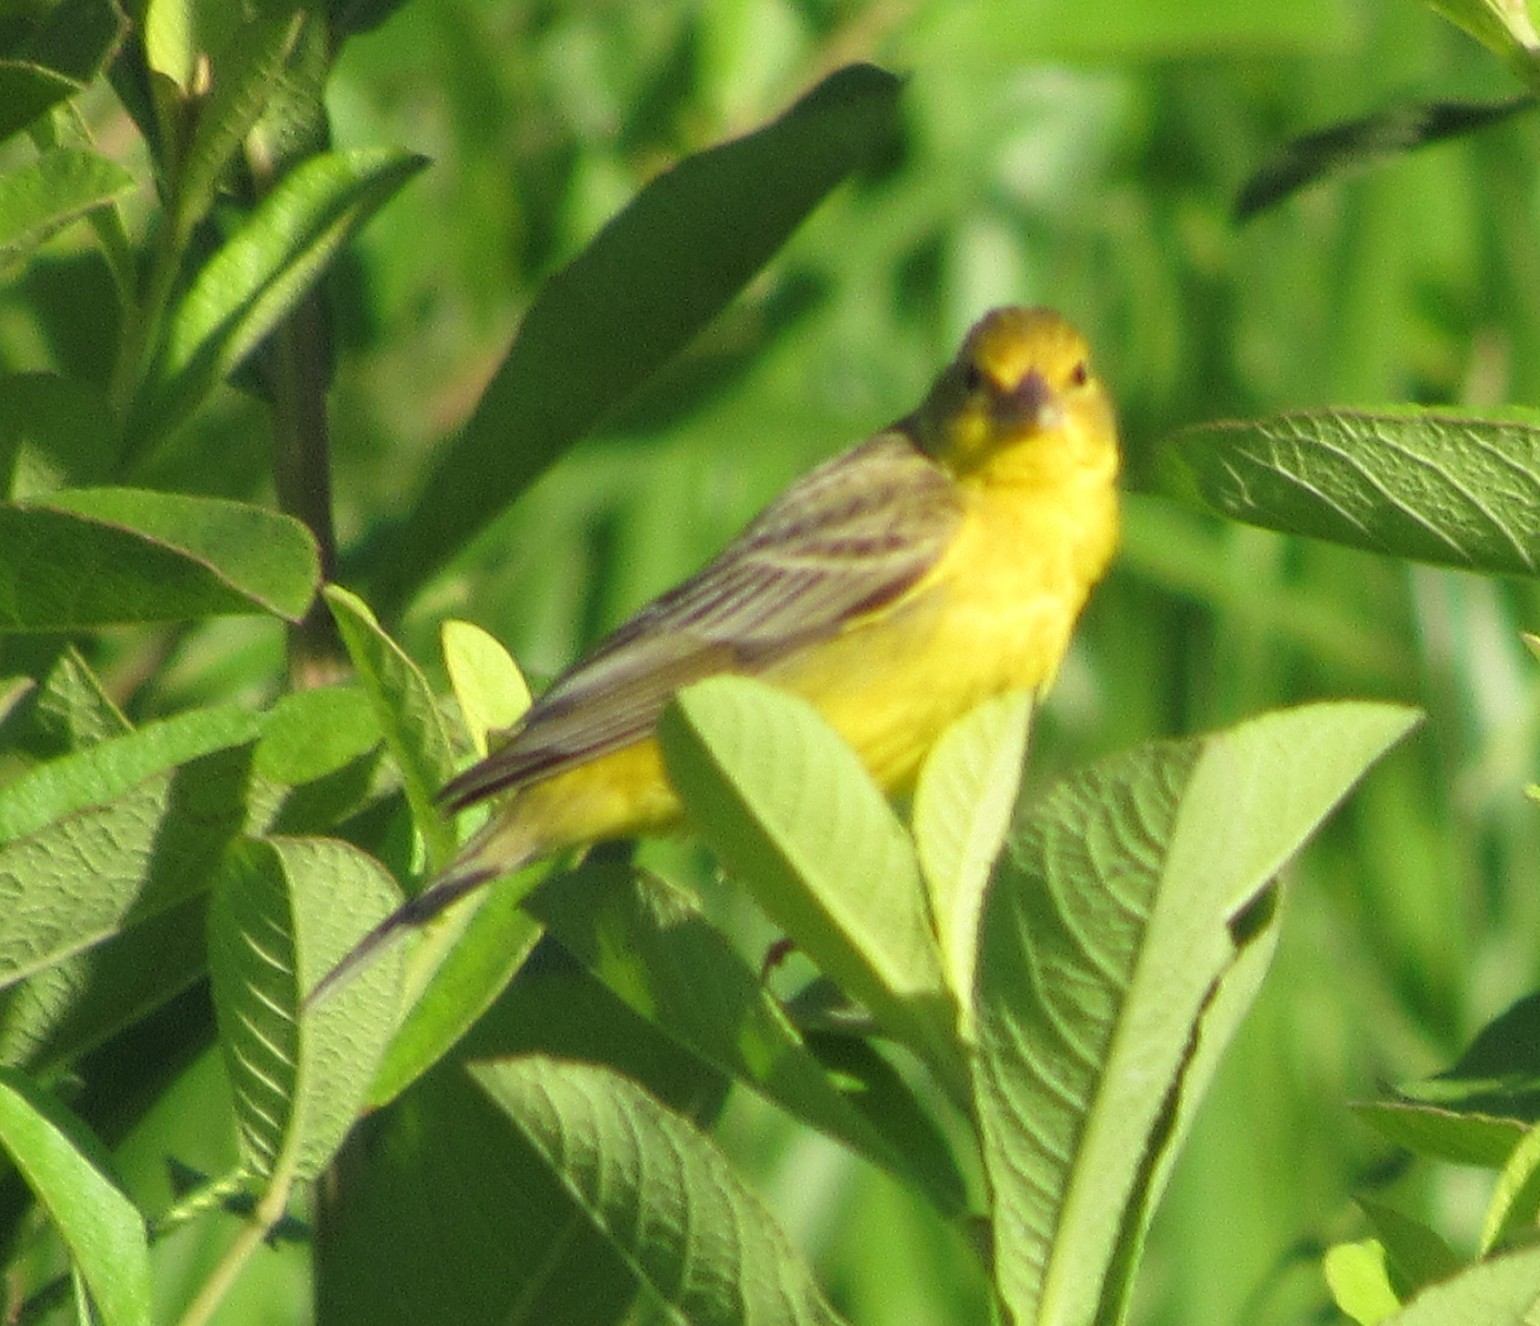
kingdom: Animalia
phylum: Chordata
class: Aves
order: Passeriformes
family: Thraupidae
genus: Sicalis
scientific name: Sicalis luteola
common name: Grassland yellow-finch
